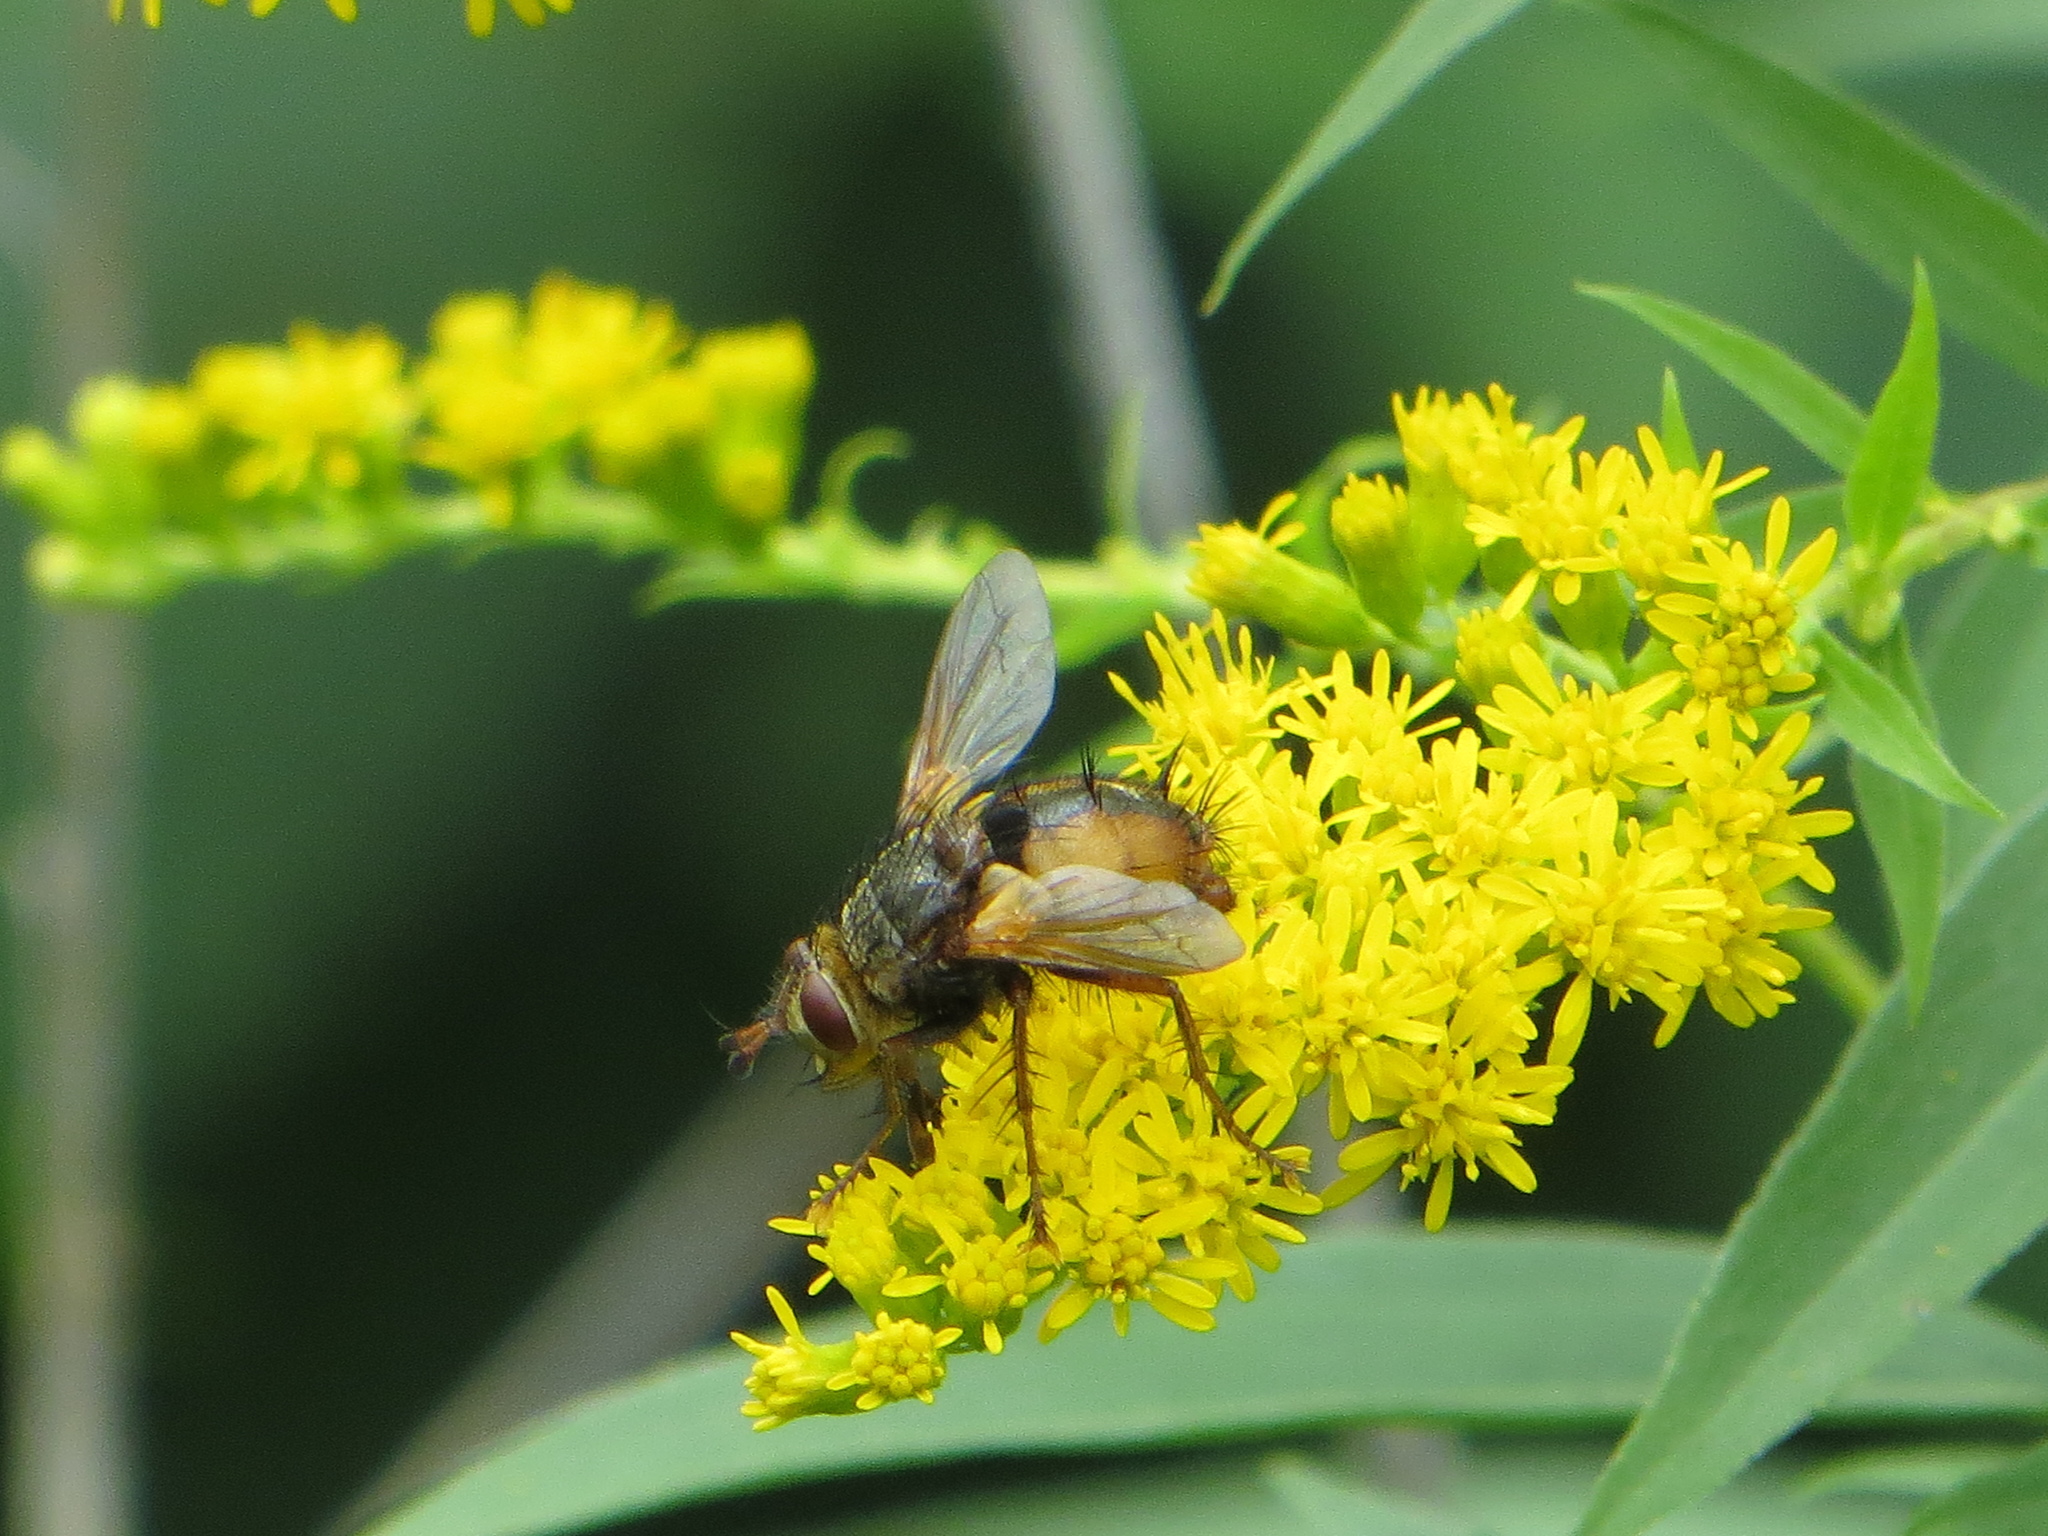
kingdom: Animalia
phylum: Arthropoda
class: Insecta
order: Diptera
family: Tachinidae
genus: Tachina
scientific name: Tachina fera
